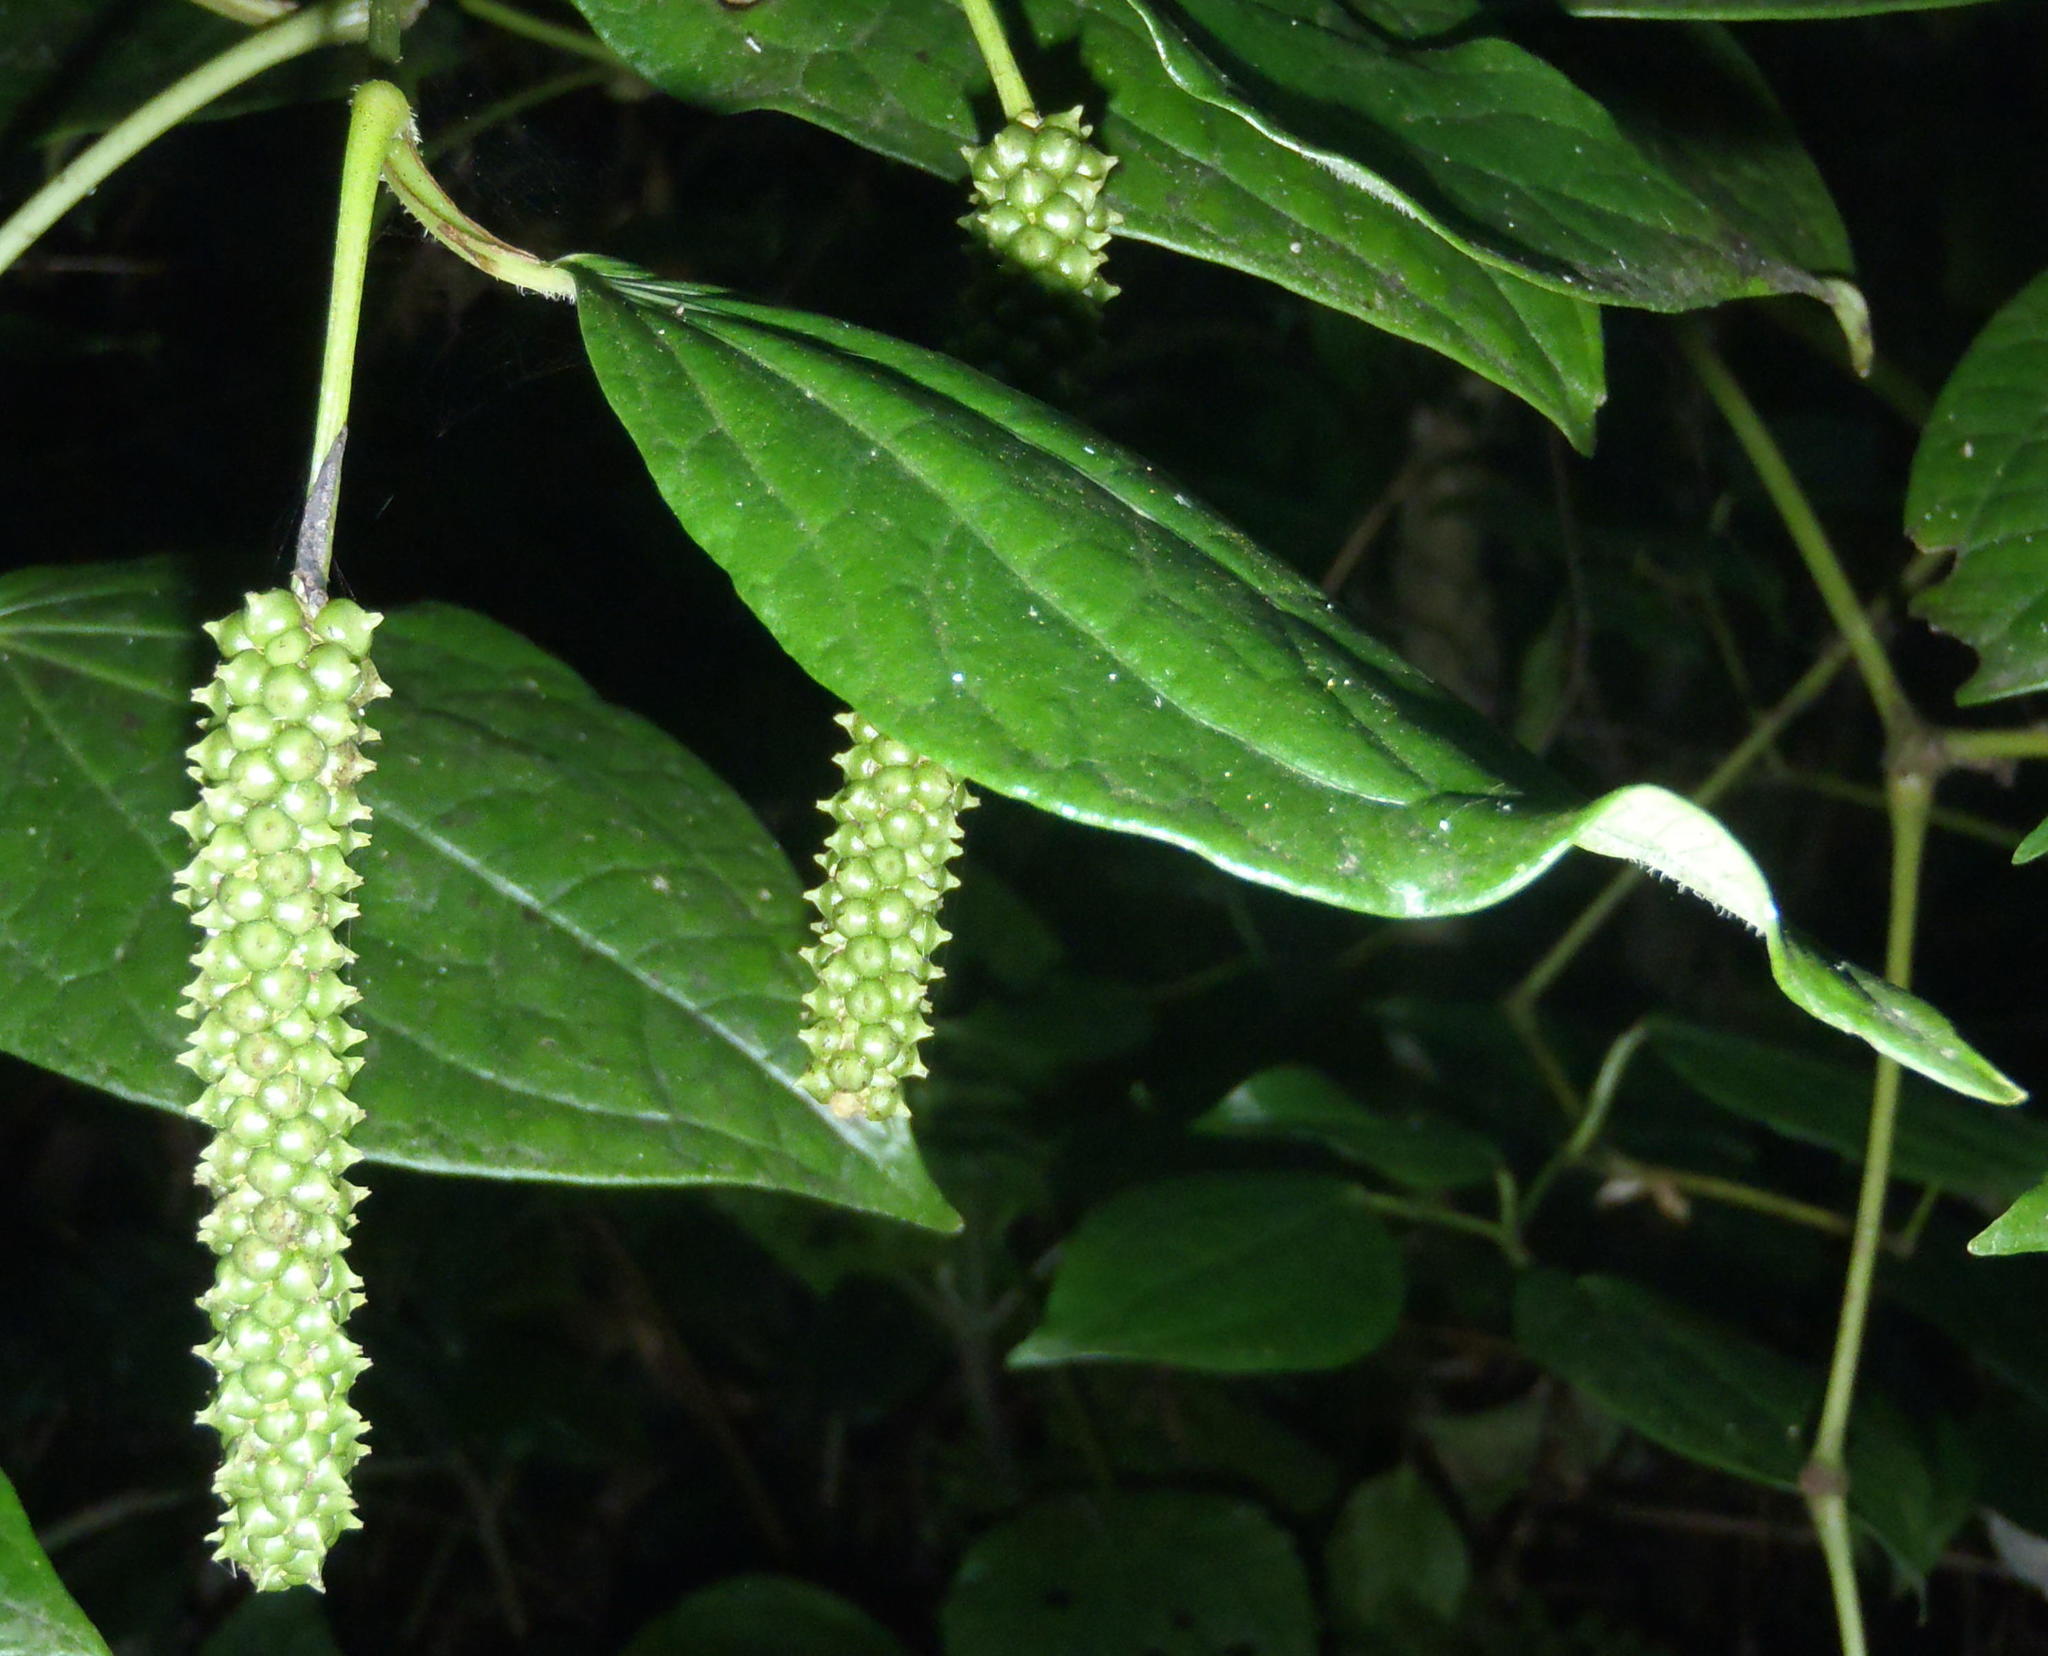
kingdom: Plantae
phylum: Tracheophyta
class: Magnoliopsida
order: Piperales
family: Piperaceae
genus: Piper
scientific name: Piper capense
